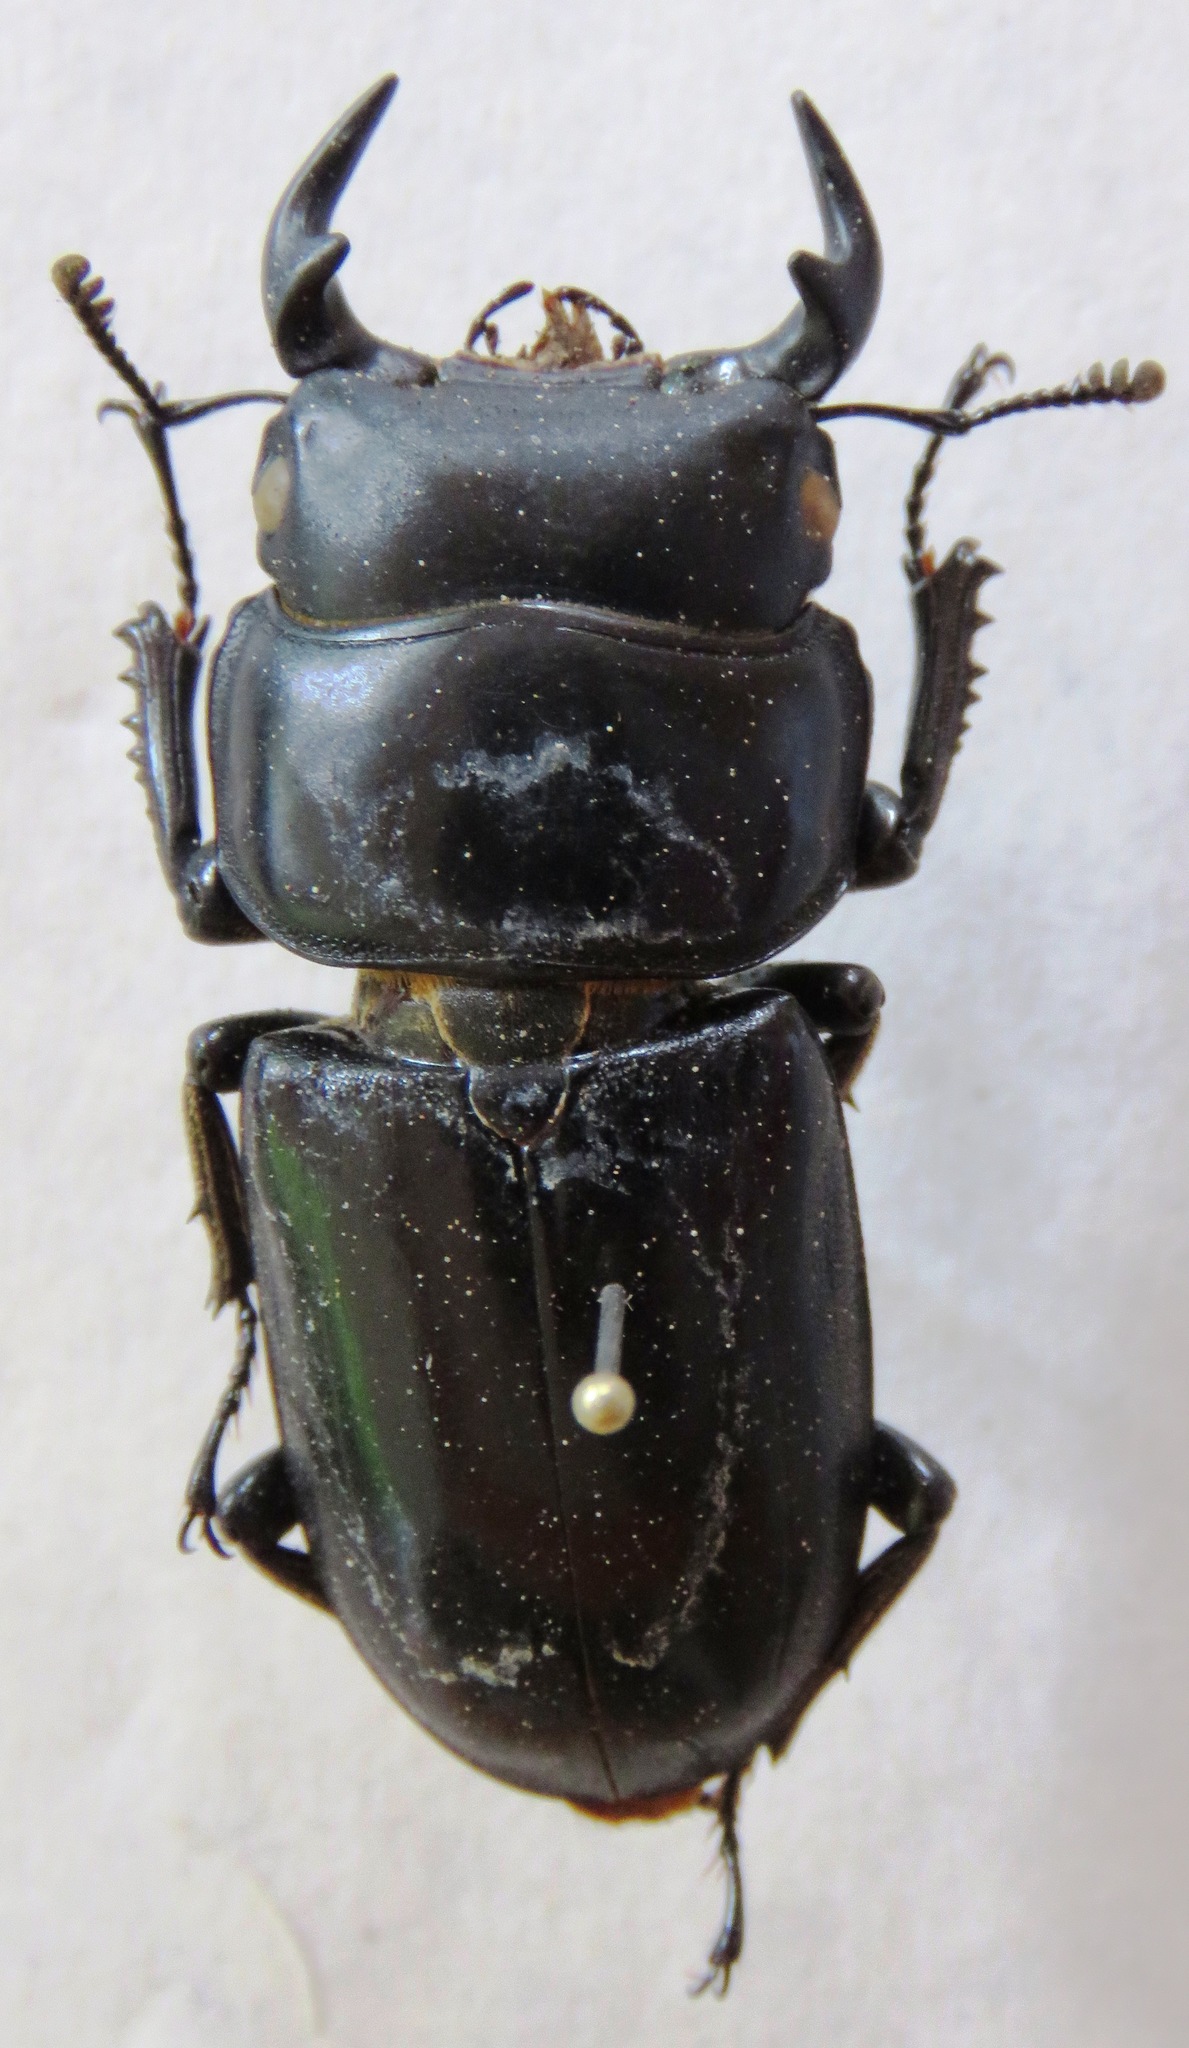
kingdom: Animalia
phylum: Arthropoda
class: Insecta
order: Coleoptera
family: Lucanidae
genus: Dorcus
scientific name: Dorcus yaksha
